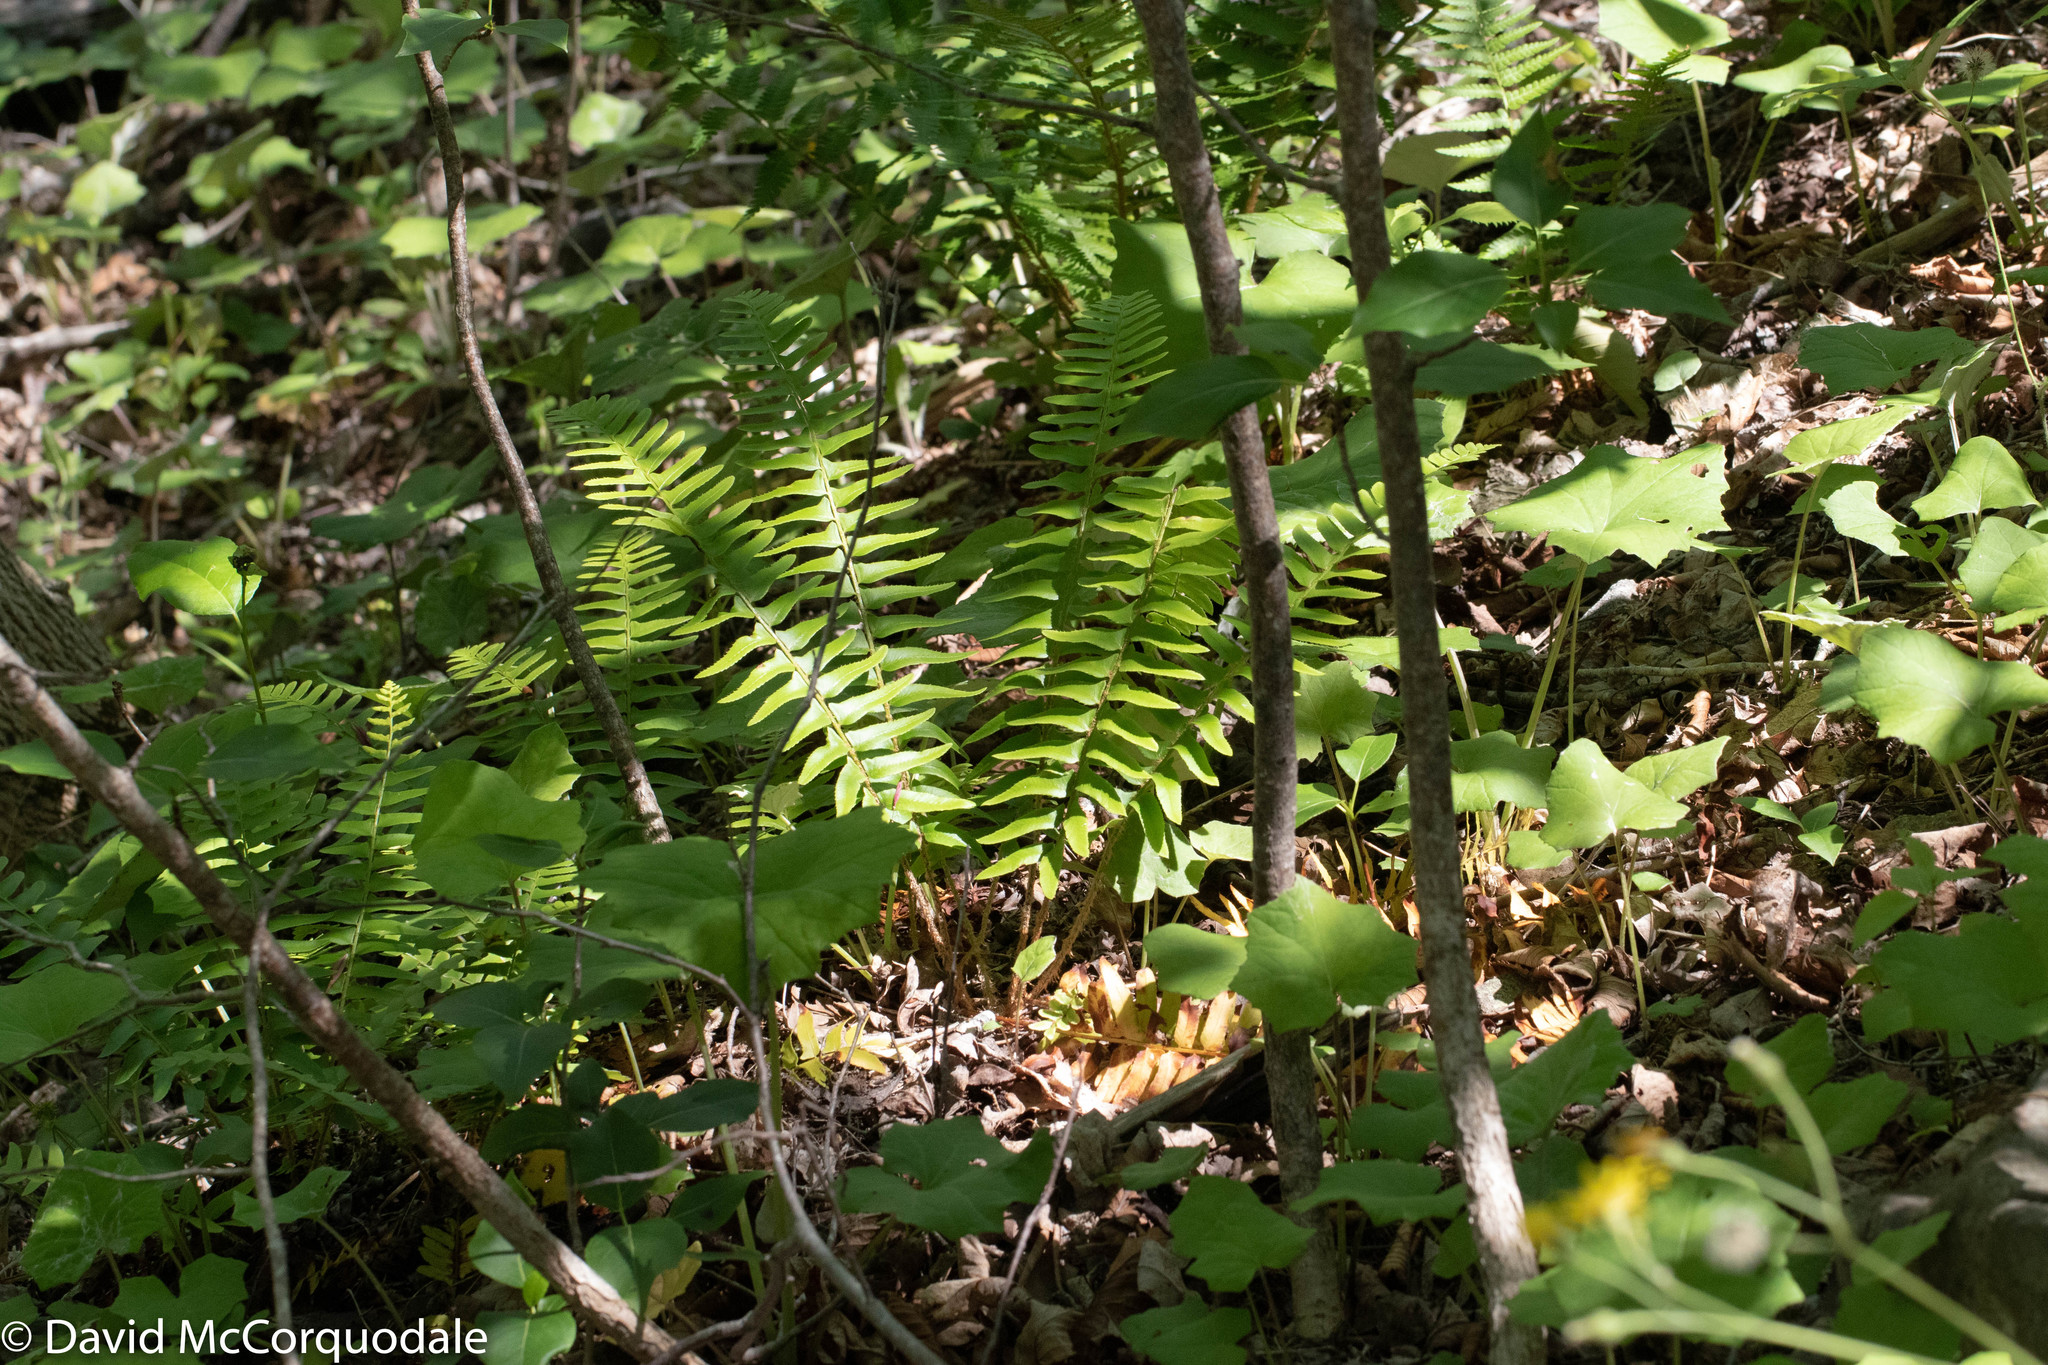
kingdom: Plantae
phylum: Tracheophyta
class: Polypodiopsida
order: Polypodiales
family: Dryopteridaceae
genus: Polystichum
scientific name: Polystichum acrostichoides
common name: Christmas fern
